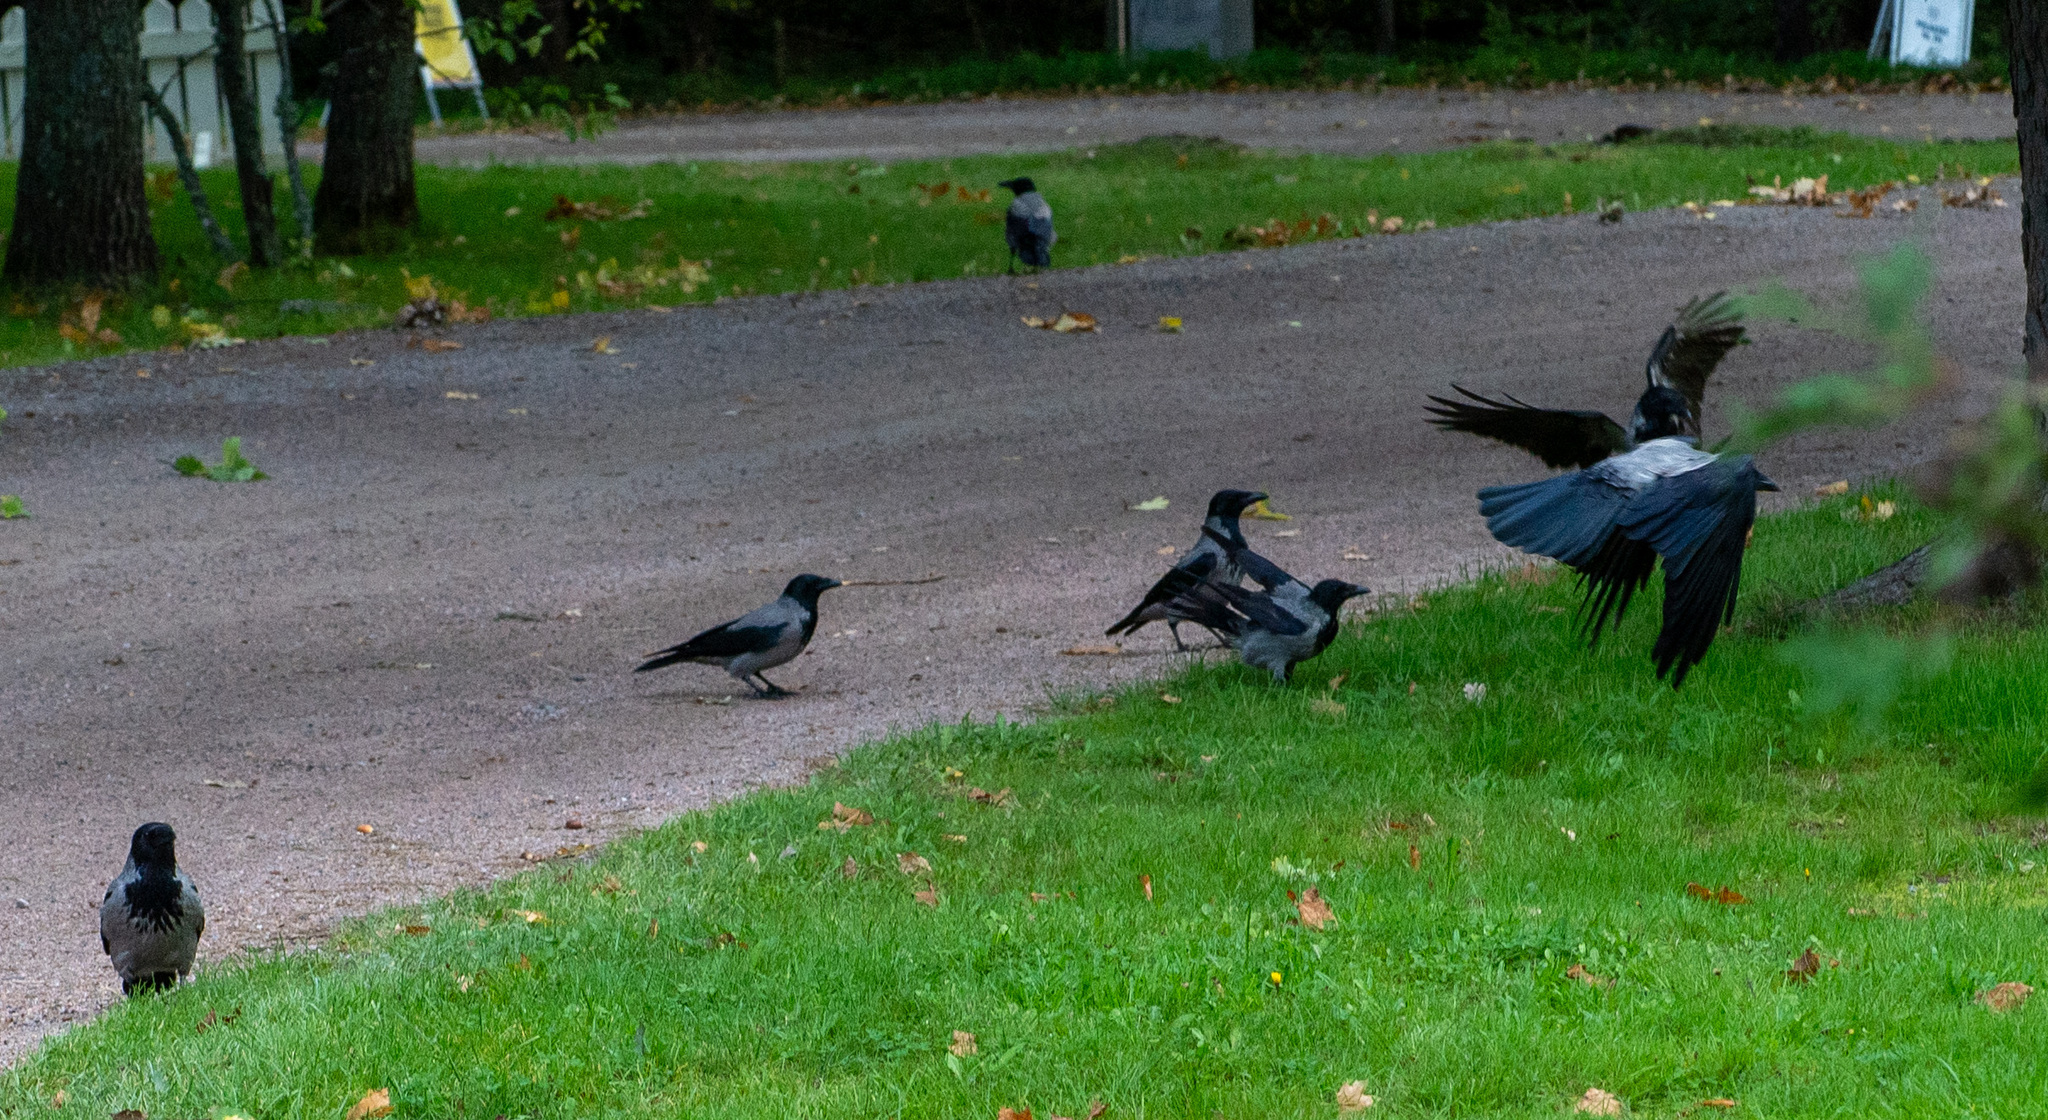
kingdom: Animalia
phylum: Chordata
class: Aves
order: Passeriformes
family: Corvidae
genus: Corvus
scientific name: Corvus cornix
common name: Hooded crow
